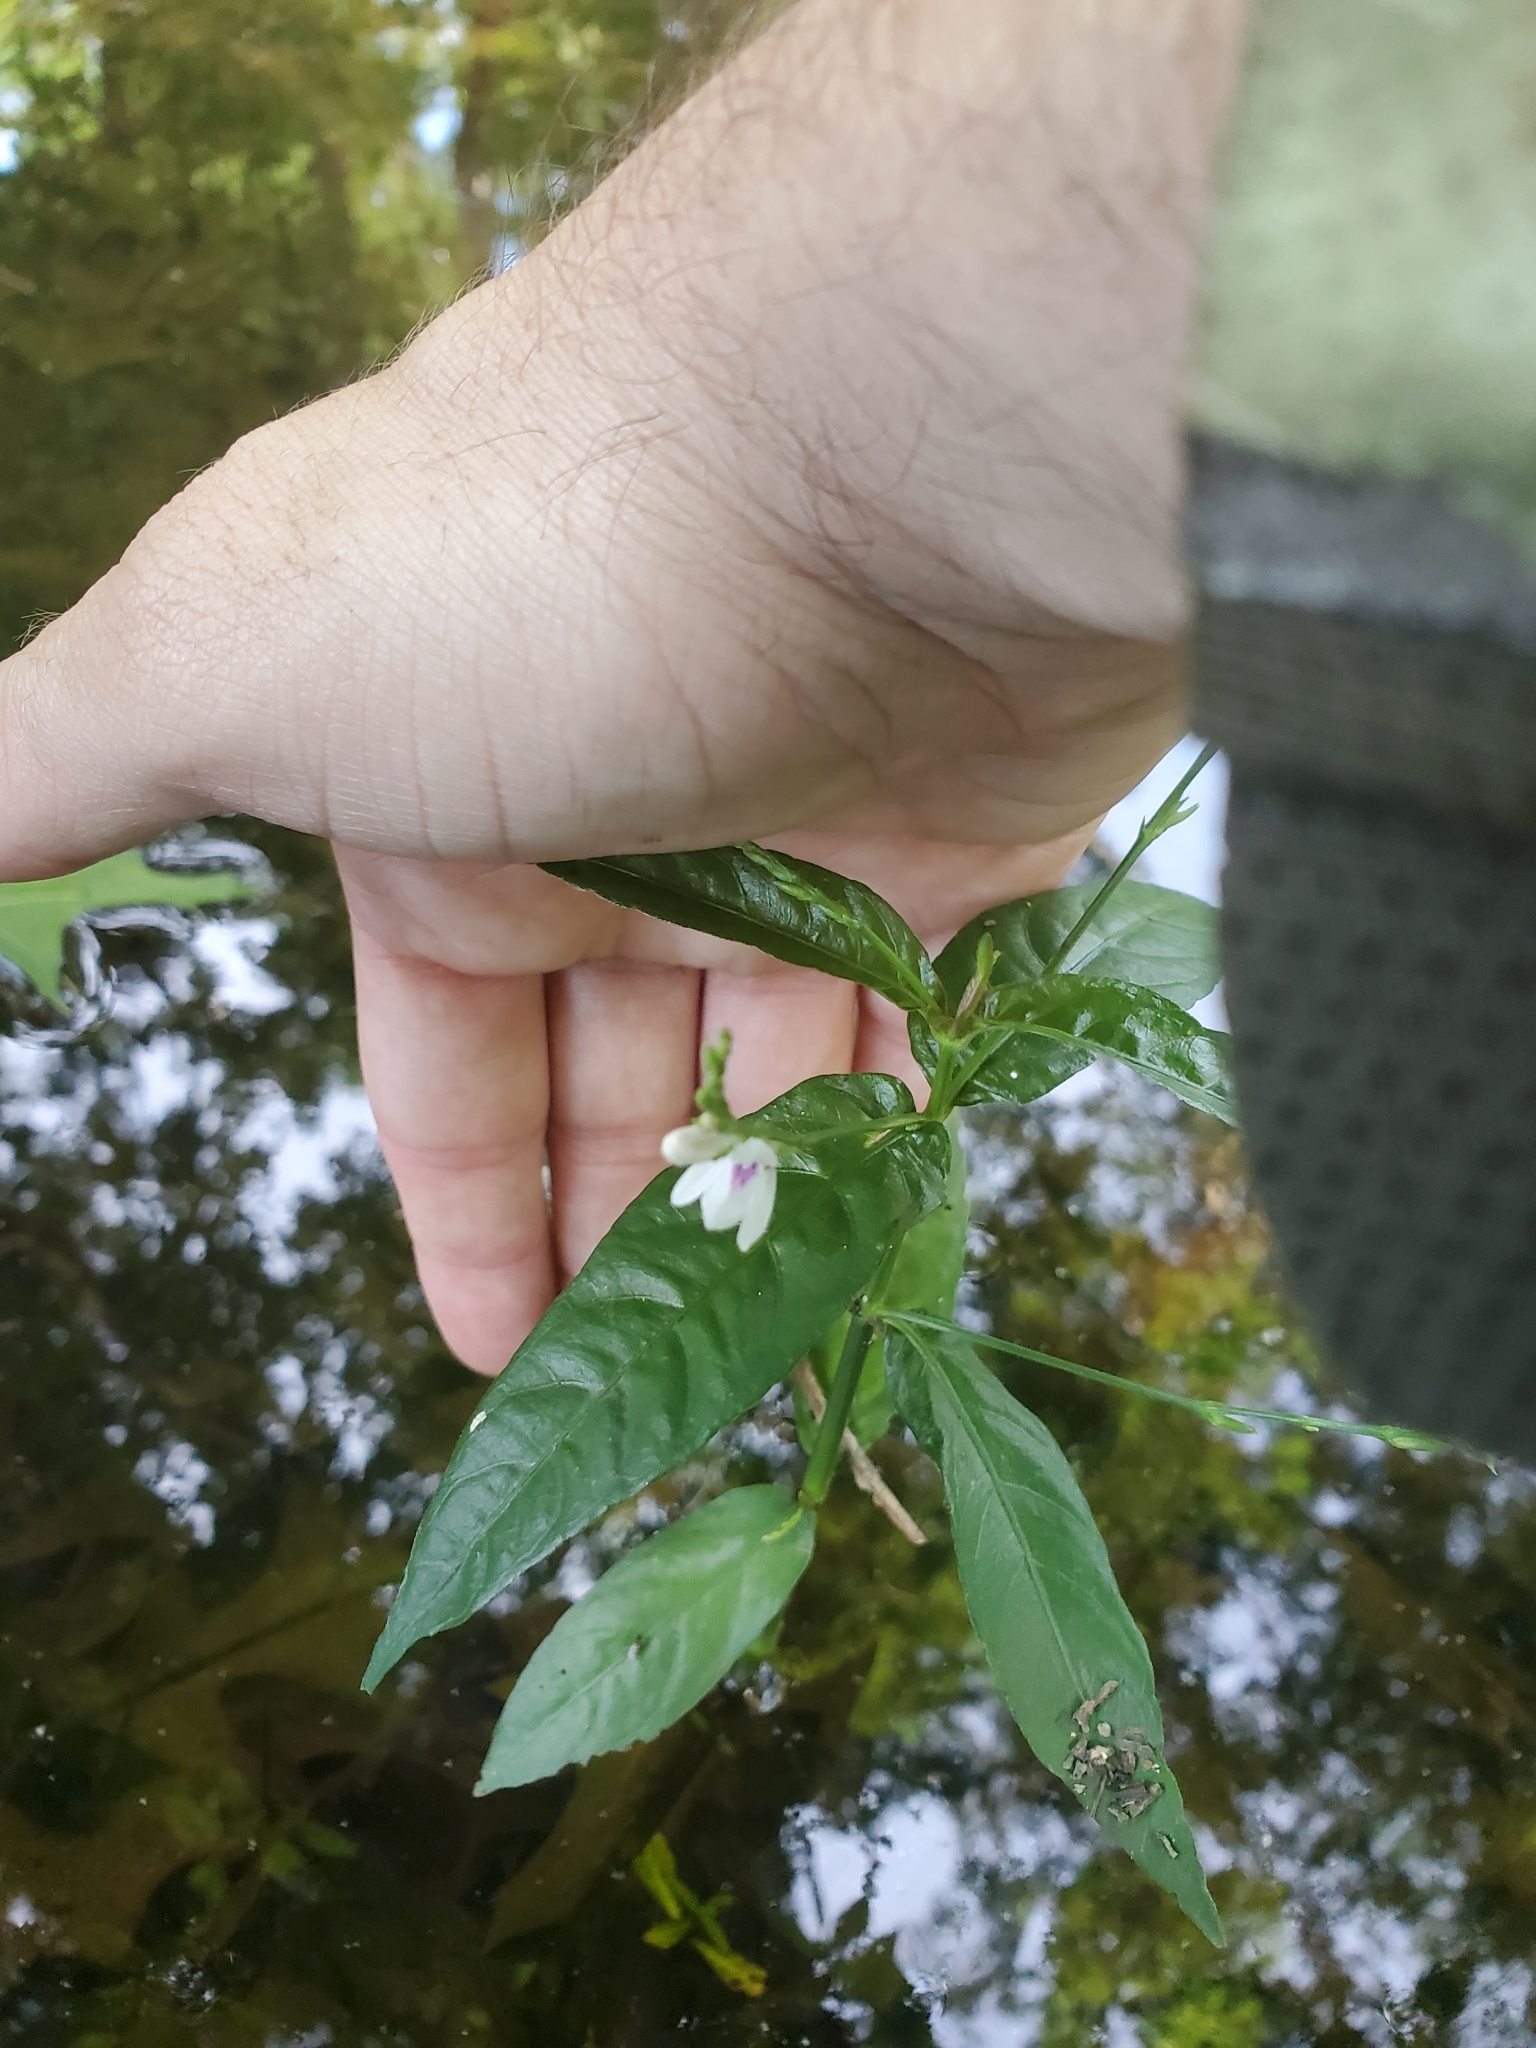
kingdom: Plantae
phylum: Tracheophyta
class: Magnoliopsida
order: Lamiales
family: Acanthaceae
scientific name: Acanthaceae
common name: Acanthaceae
